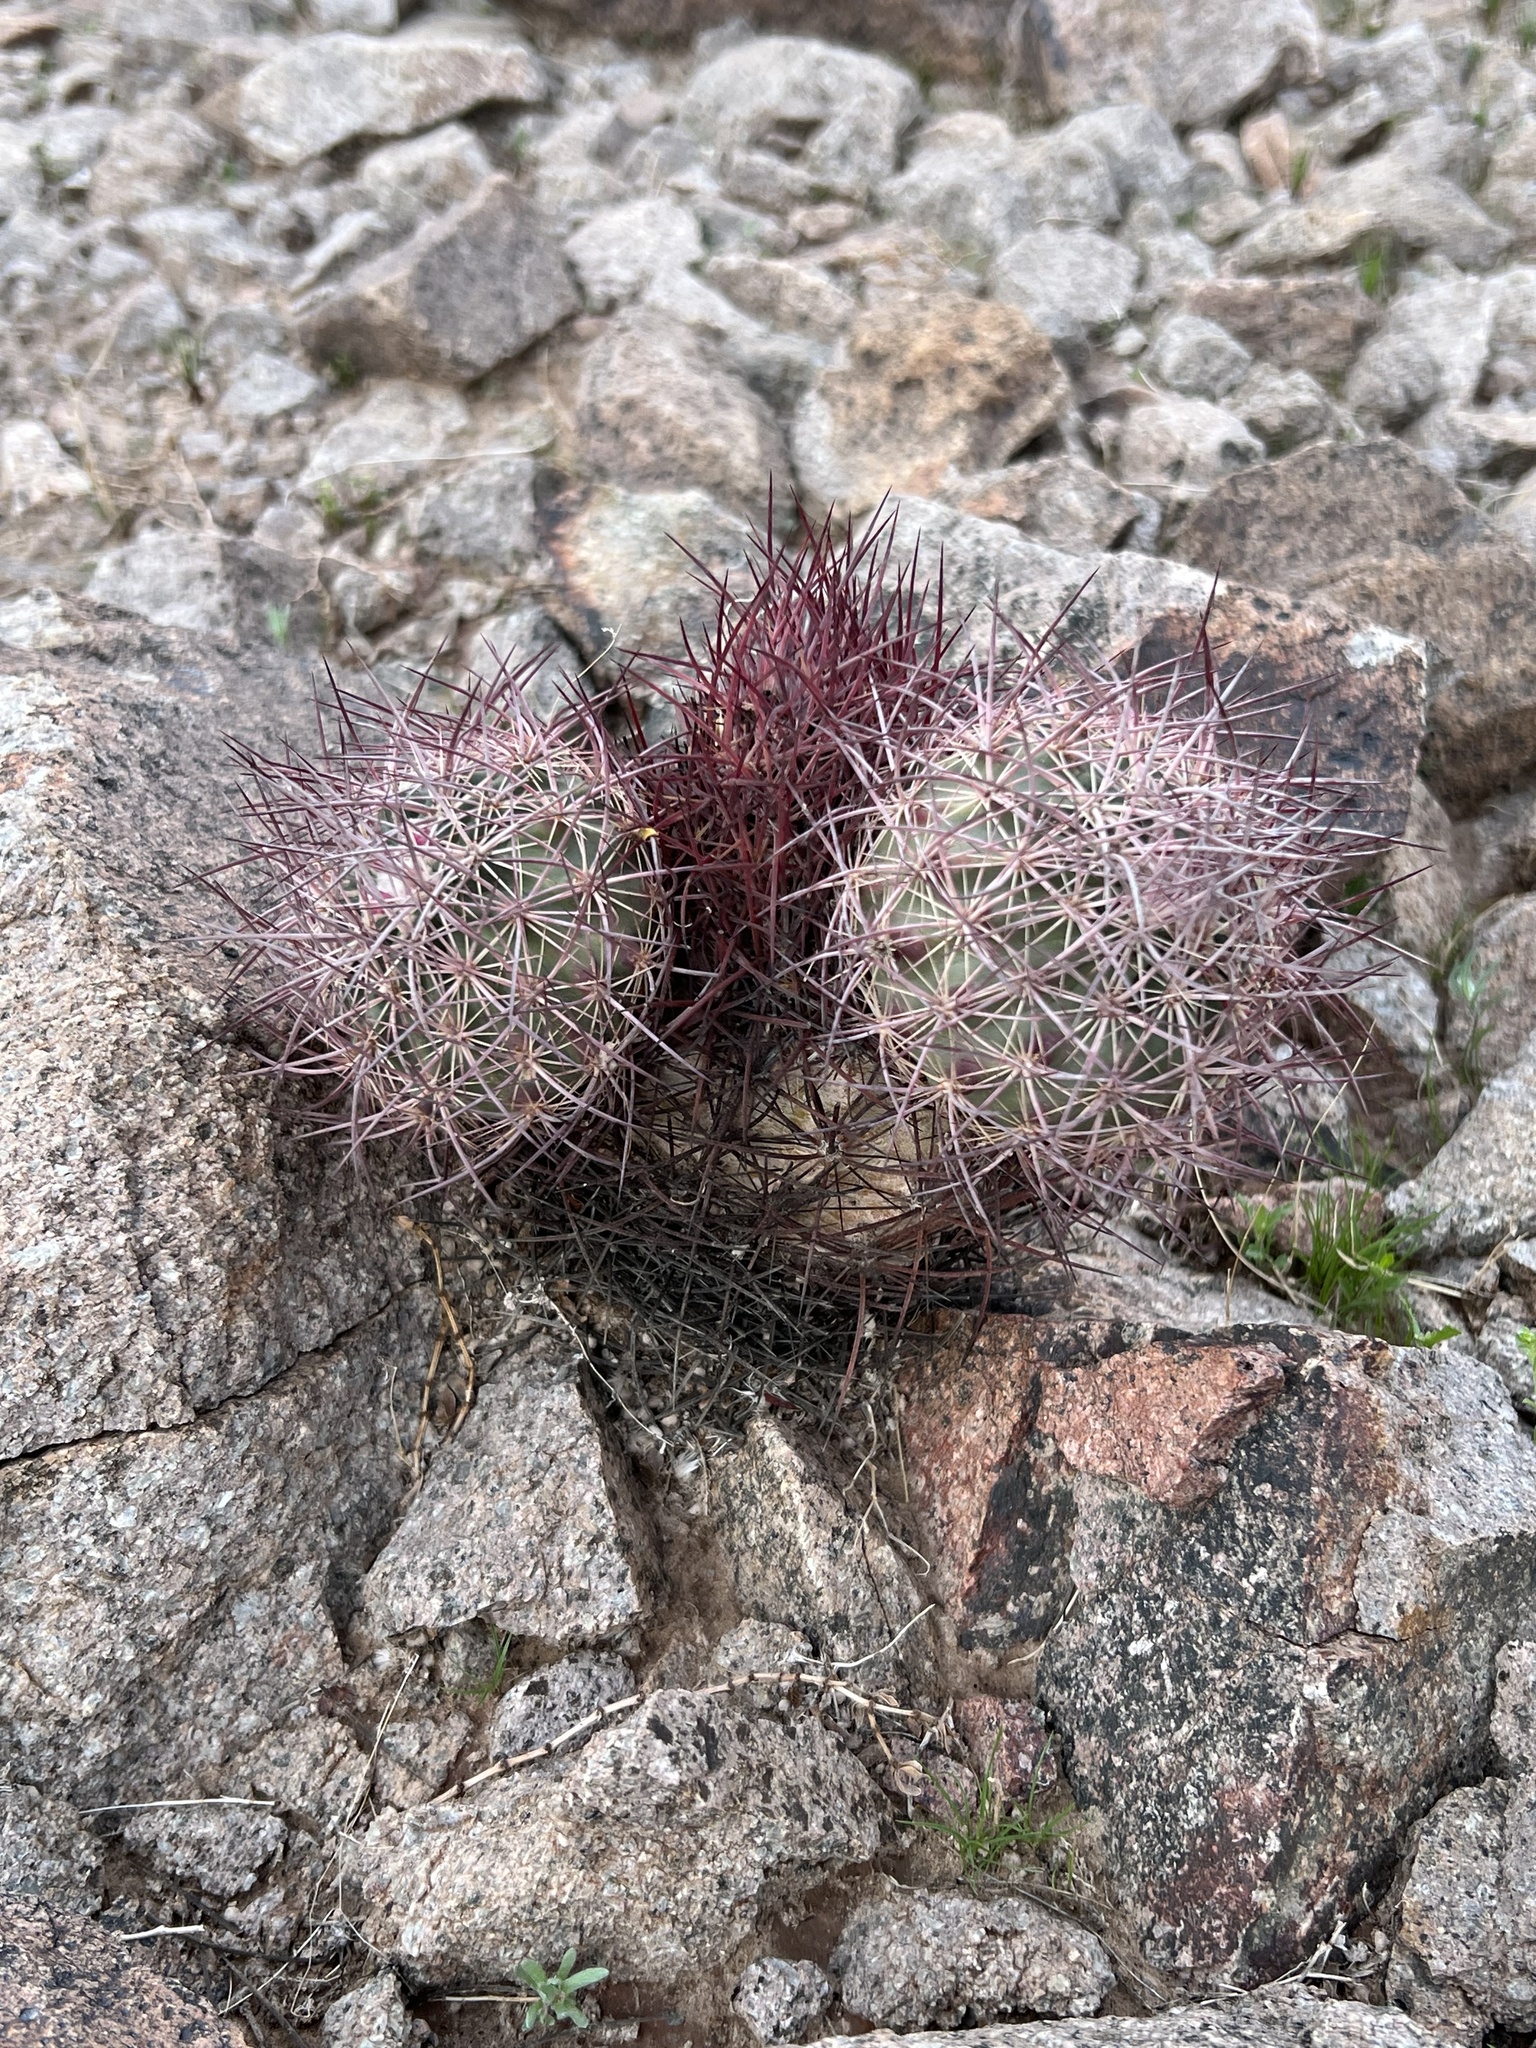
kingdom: Plantae
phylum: Tracheophyta
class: Magnoliopsida
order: Caryophyllales
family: Cactaceae
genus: Sclerocactus
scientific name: Sclerocactus johnsonii
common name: Eight-spine fishhook cactus
